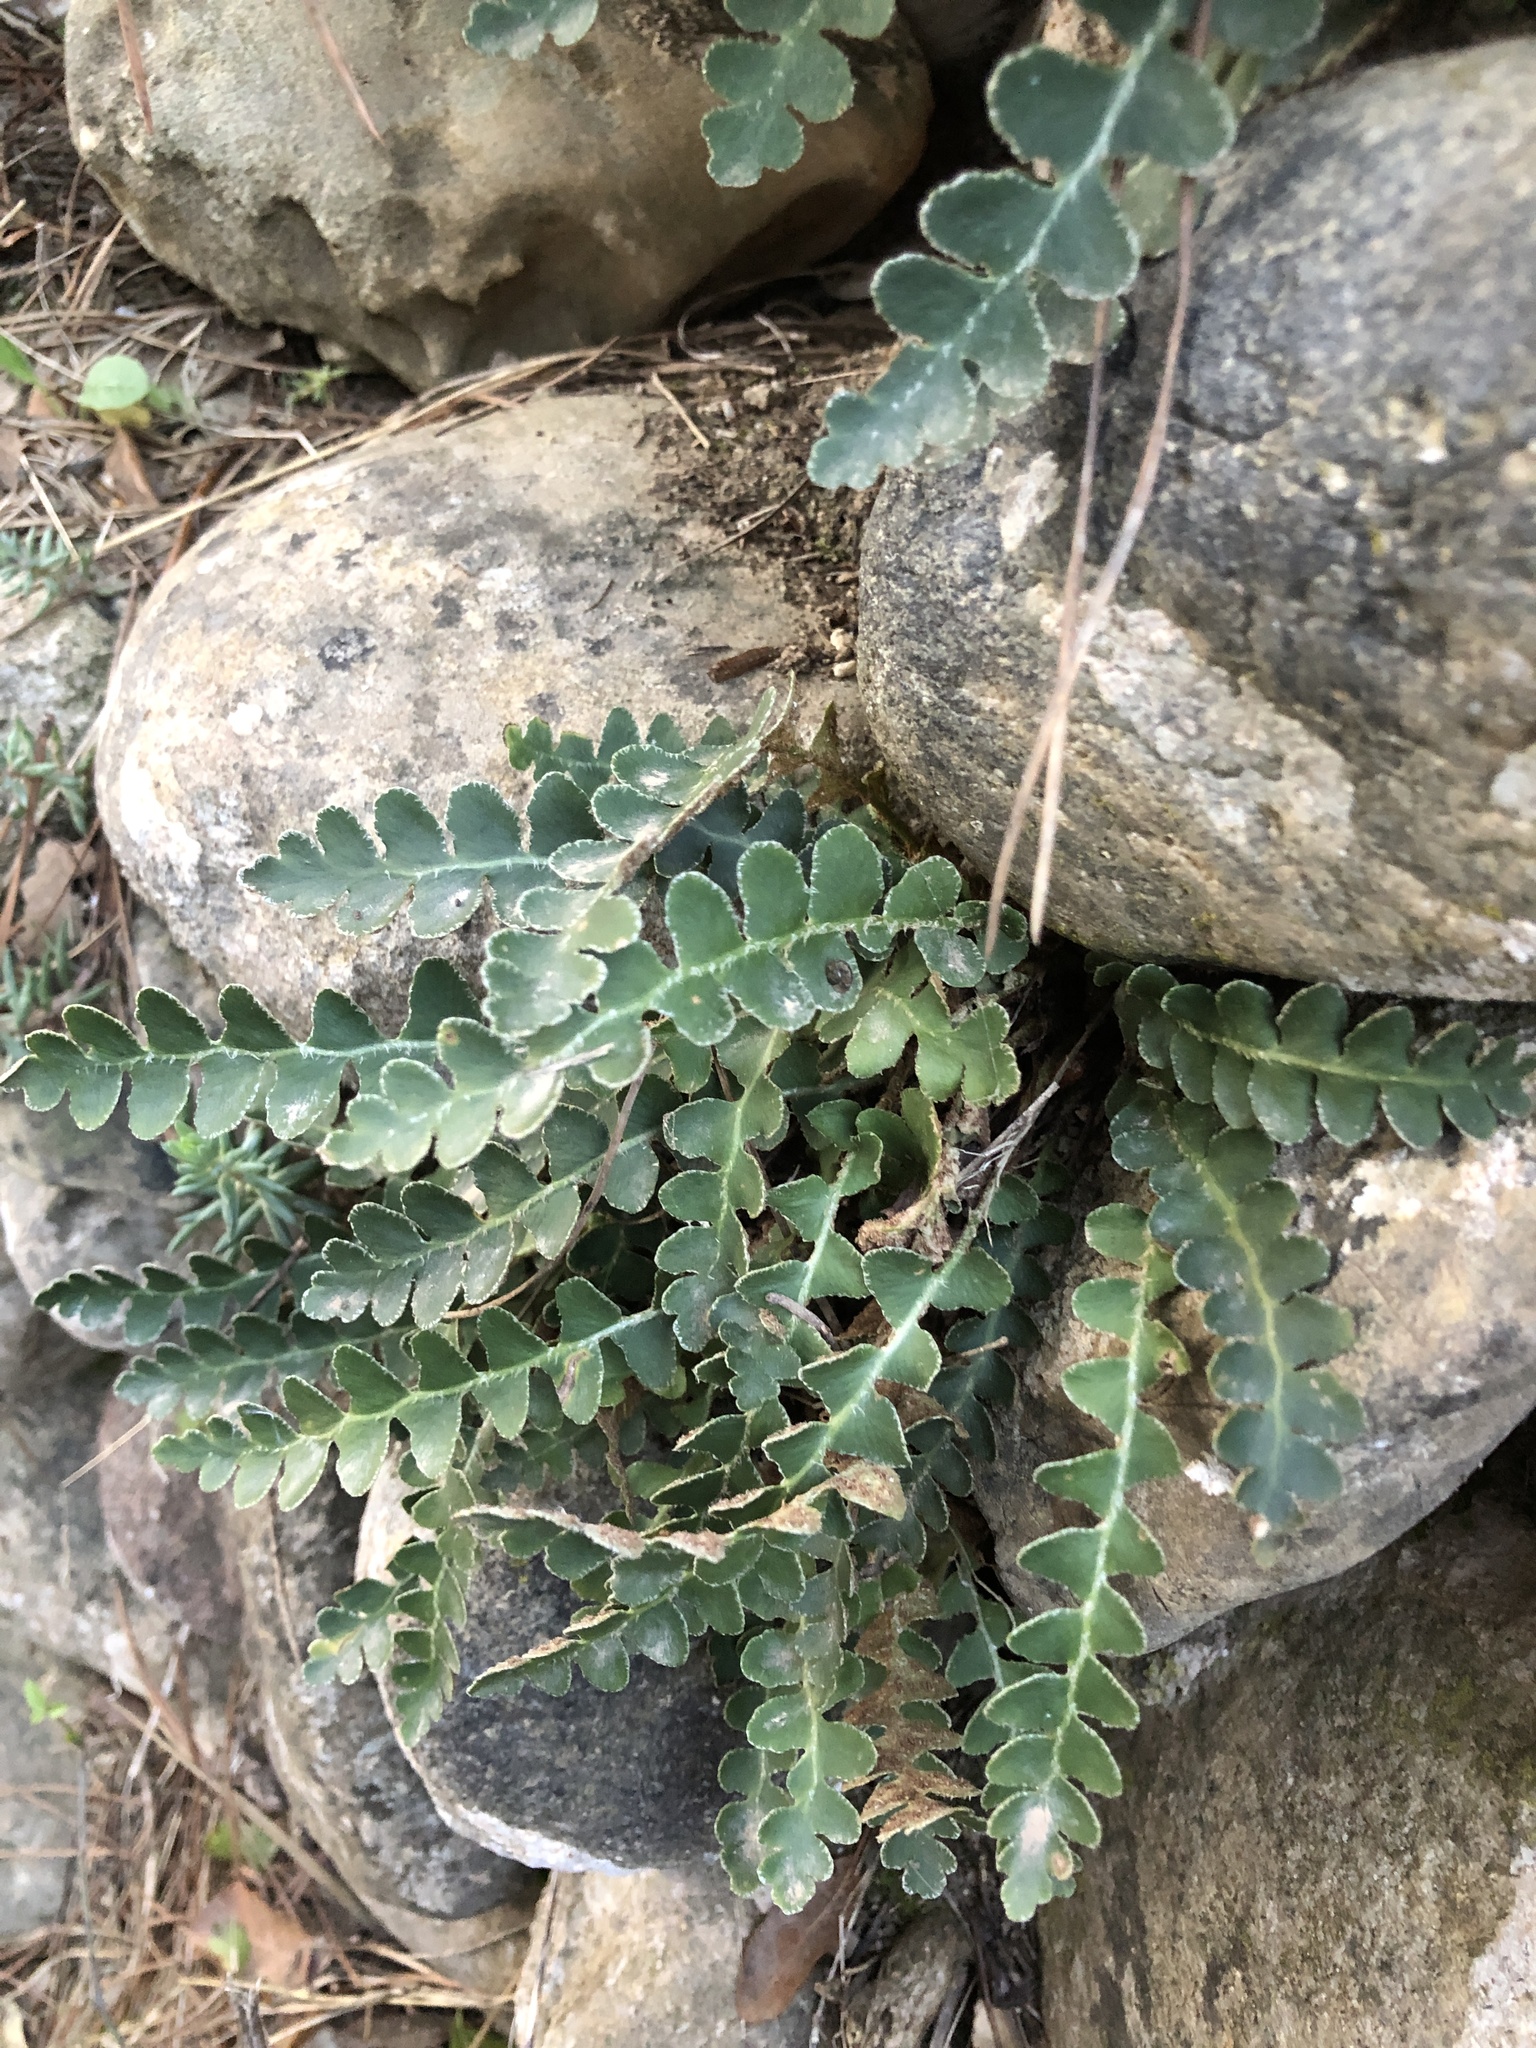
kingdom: Plantae
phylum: Tracheophyta
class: Polypodiopsida
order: Polypodiales
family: Aspleniaceae
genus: Asplenium
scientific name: Asplenium ceterach
